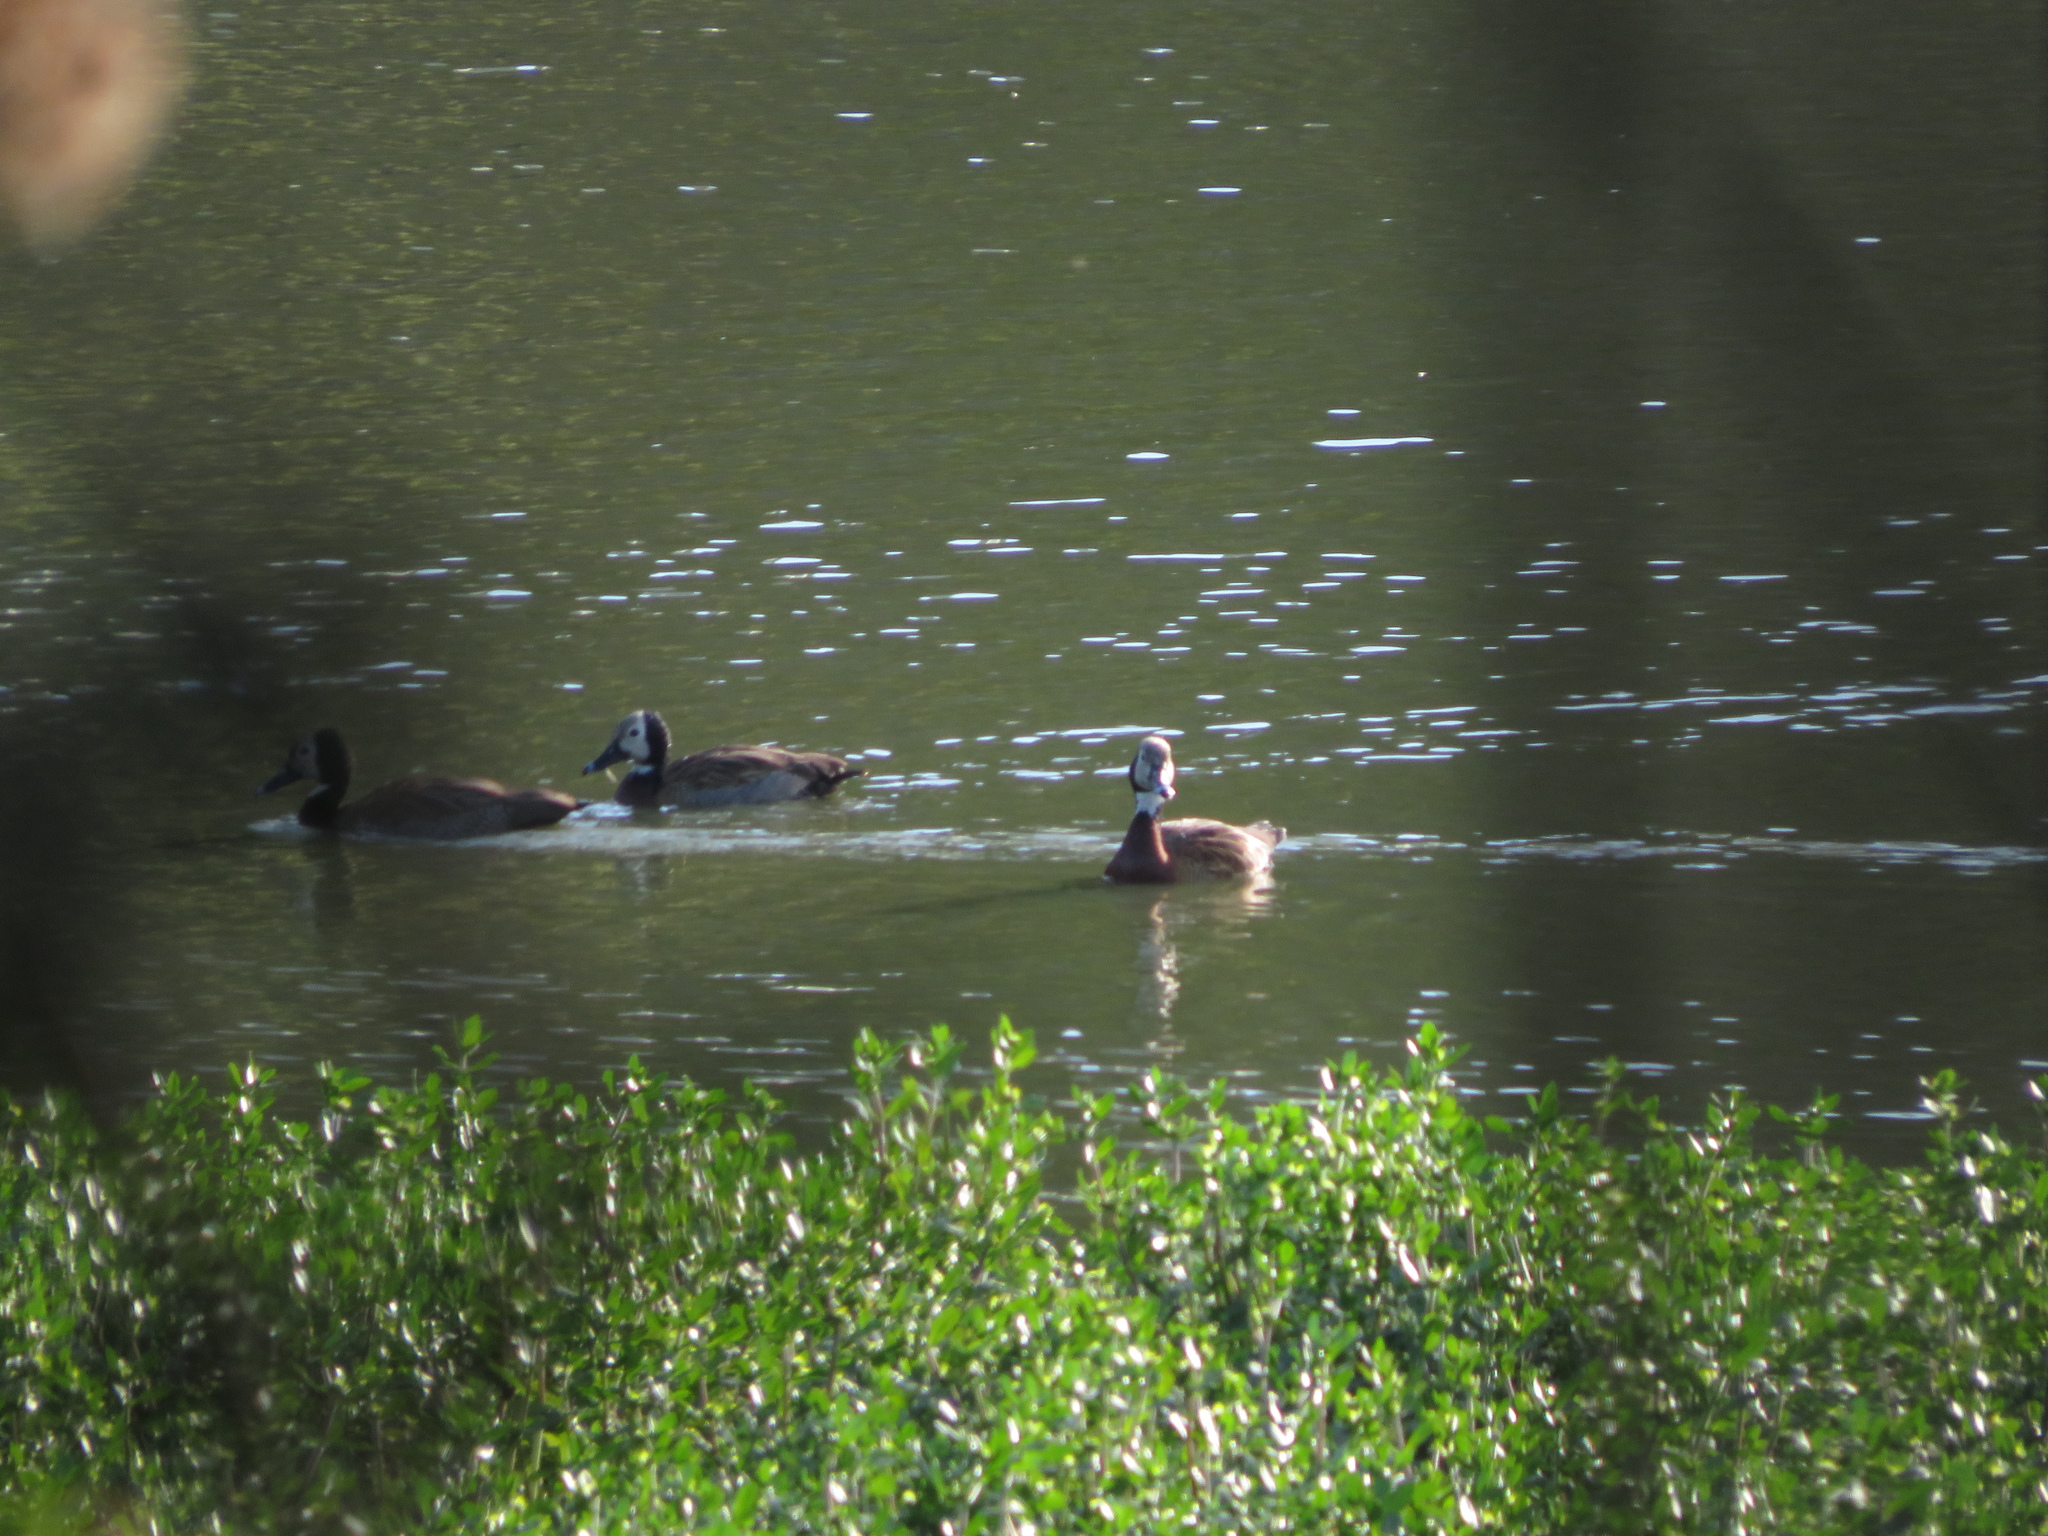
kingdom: Animalia
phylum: Chordata
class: Aves
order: Anseriformes
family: Anatidae
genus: Dendrocygna
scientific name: Dendrocygna viduata
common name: White-faced whistling duck
